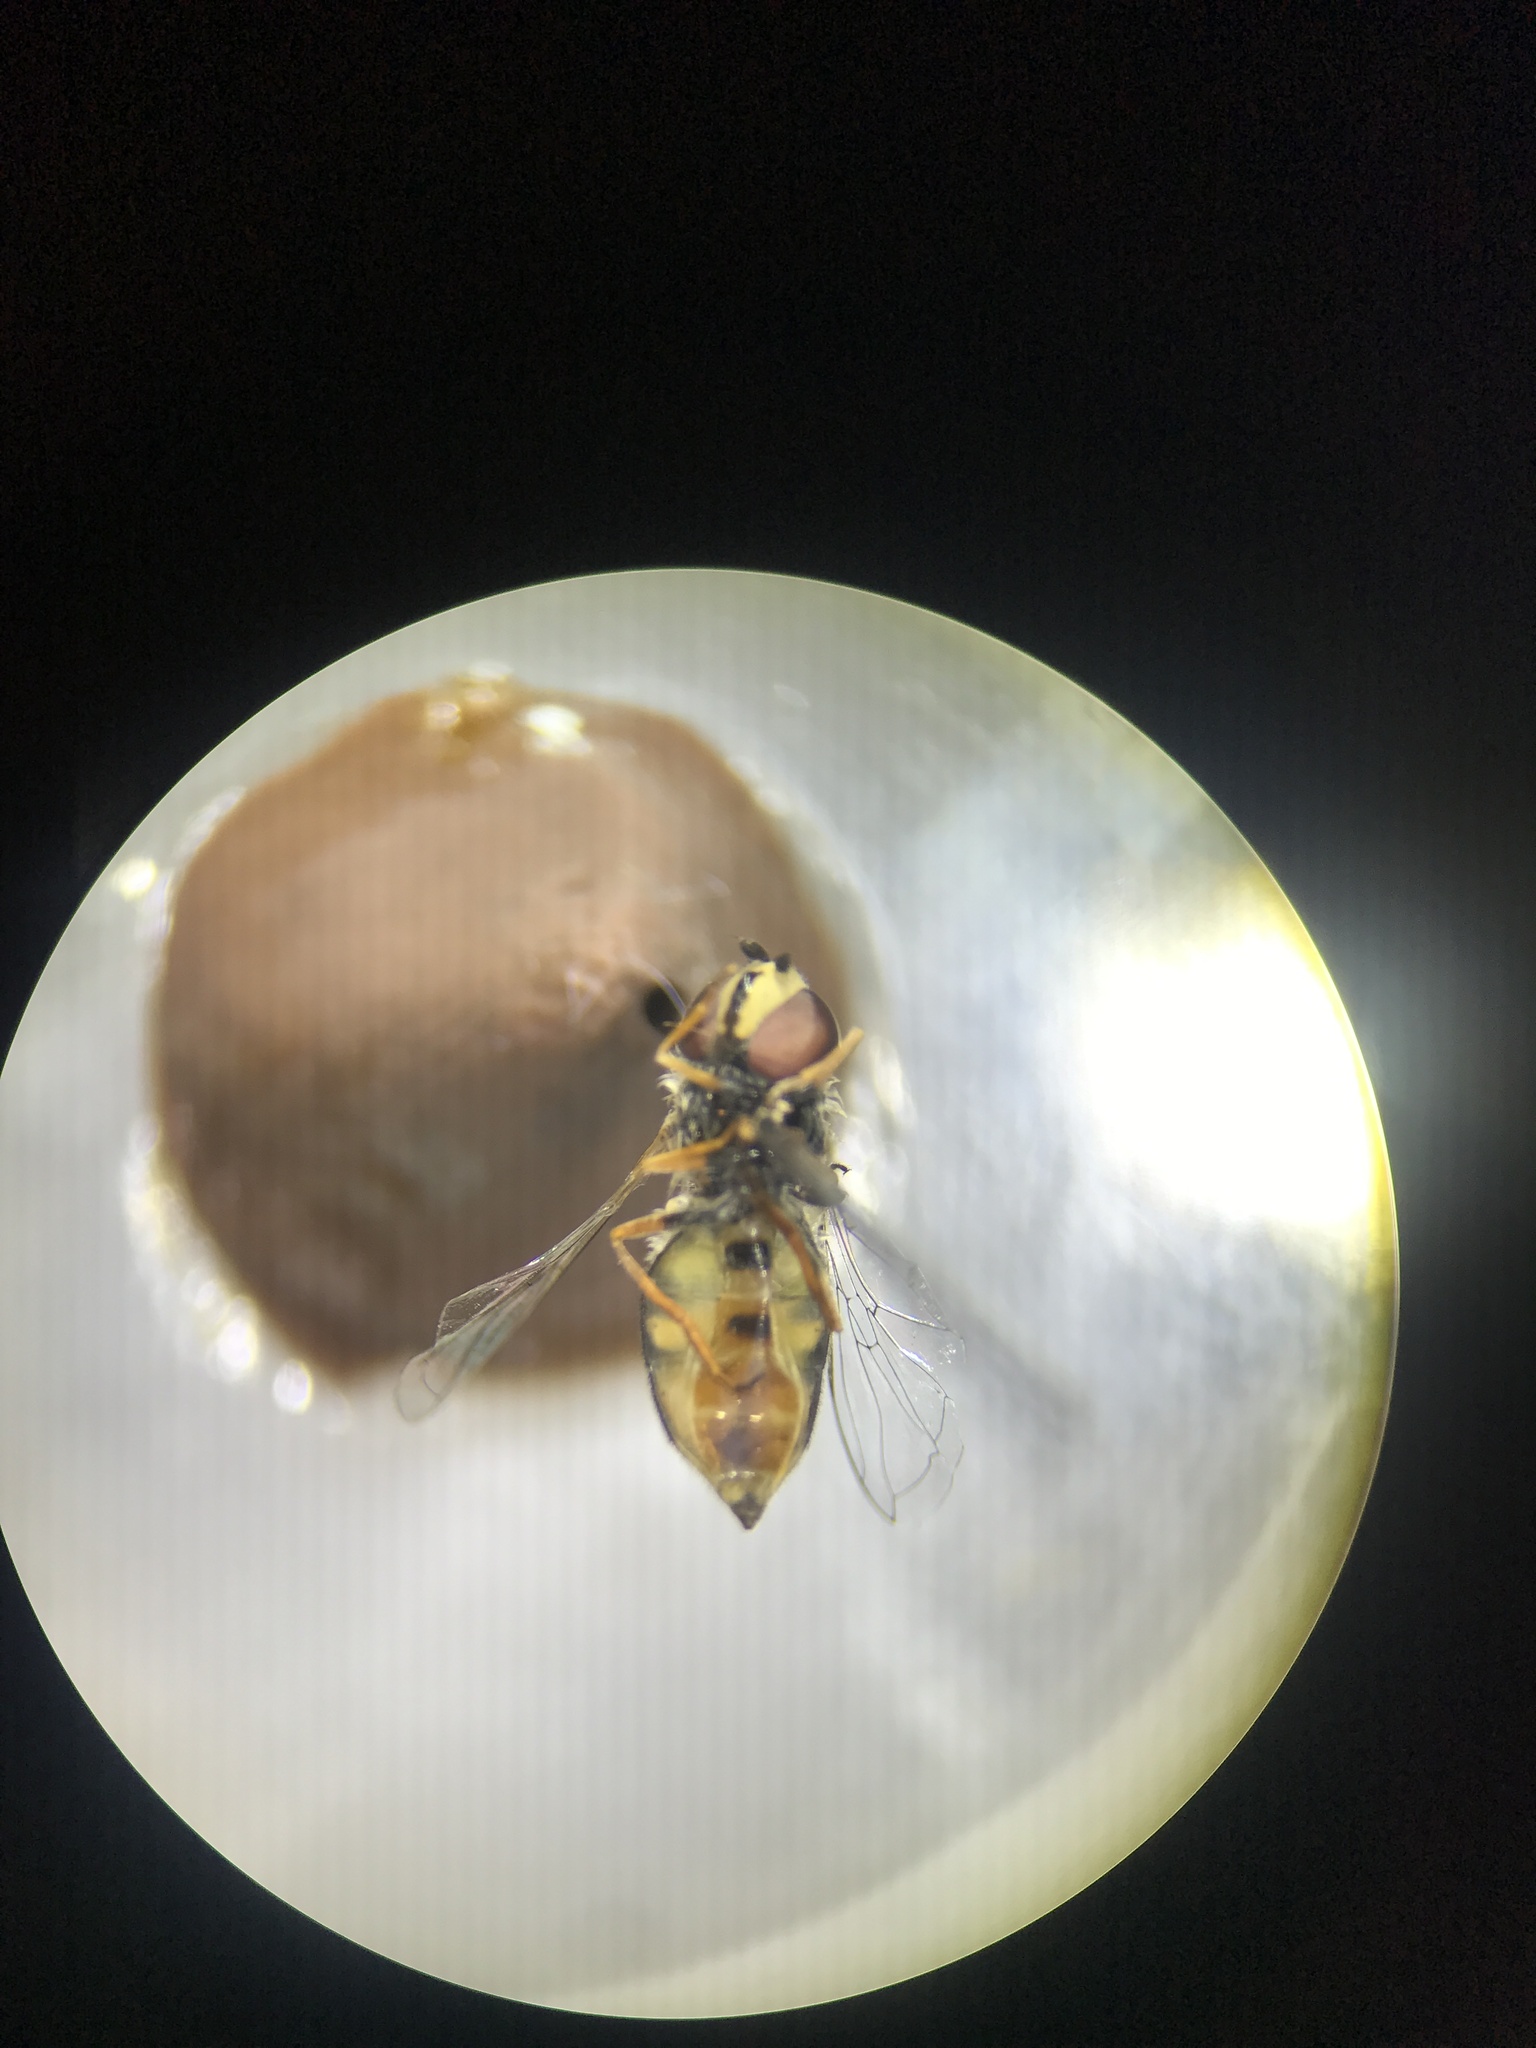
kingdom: Animalia
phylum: Arthropoda
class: Insecta
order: Diptera
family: Syrphidae
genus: Eupeodes
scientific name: Eupeodes volucris
